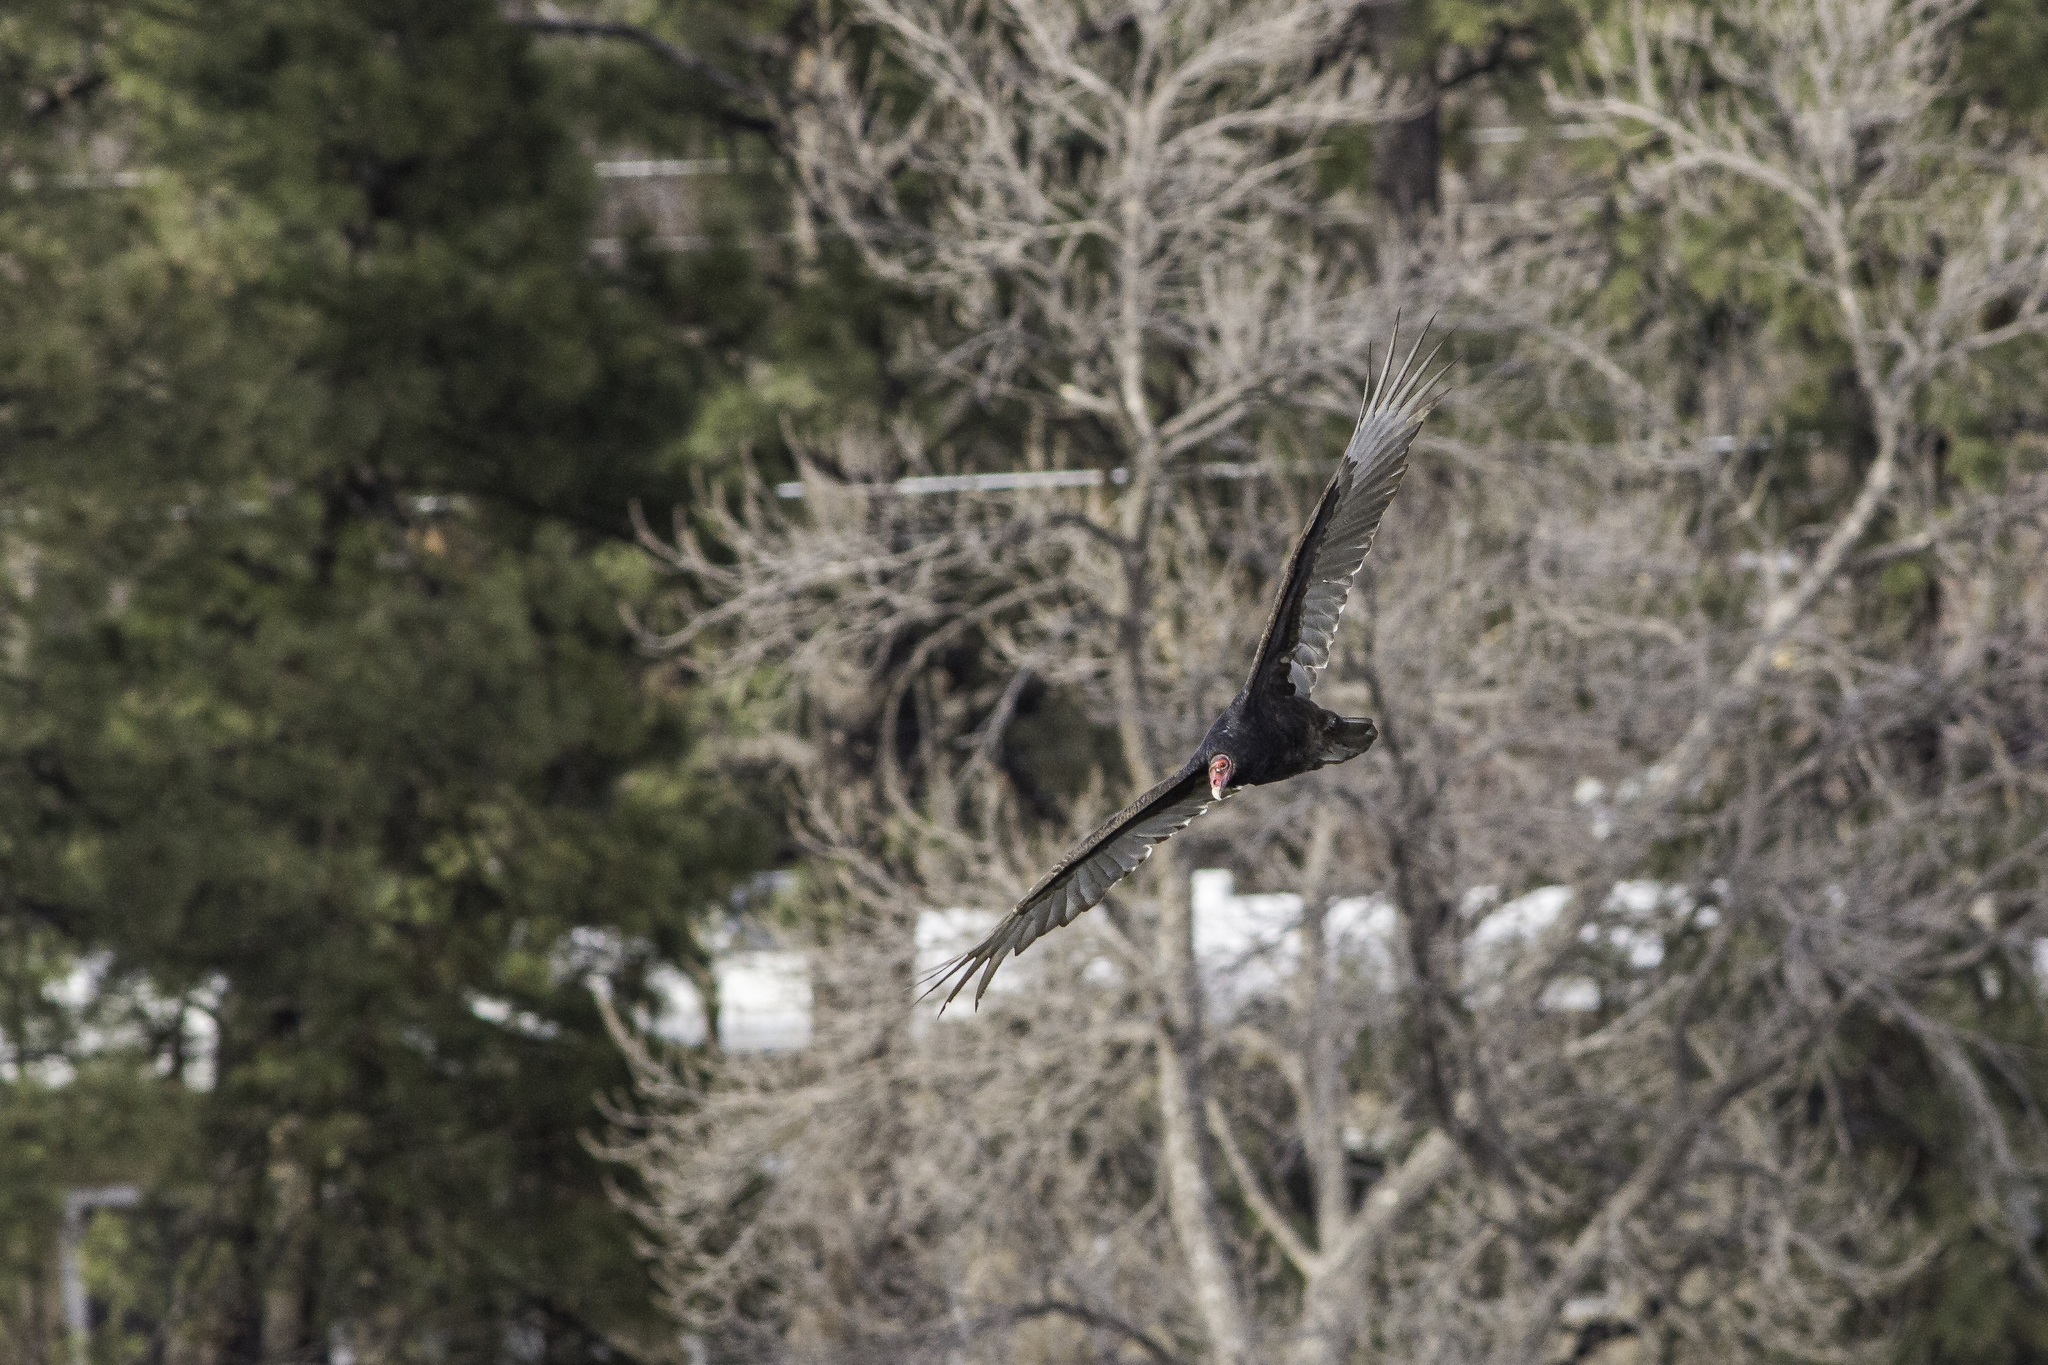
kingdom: Animalia
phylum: Chordata
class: Aves
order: Accipitriformes
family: Cathartidae
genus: Cathartes
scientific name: Cathartes aura
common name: Turkey vulture
